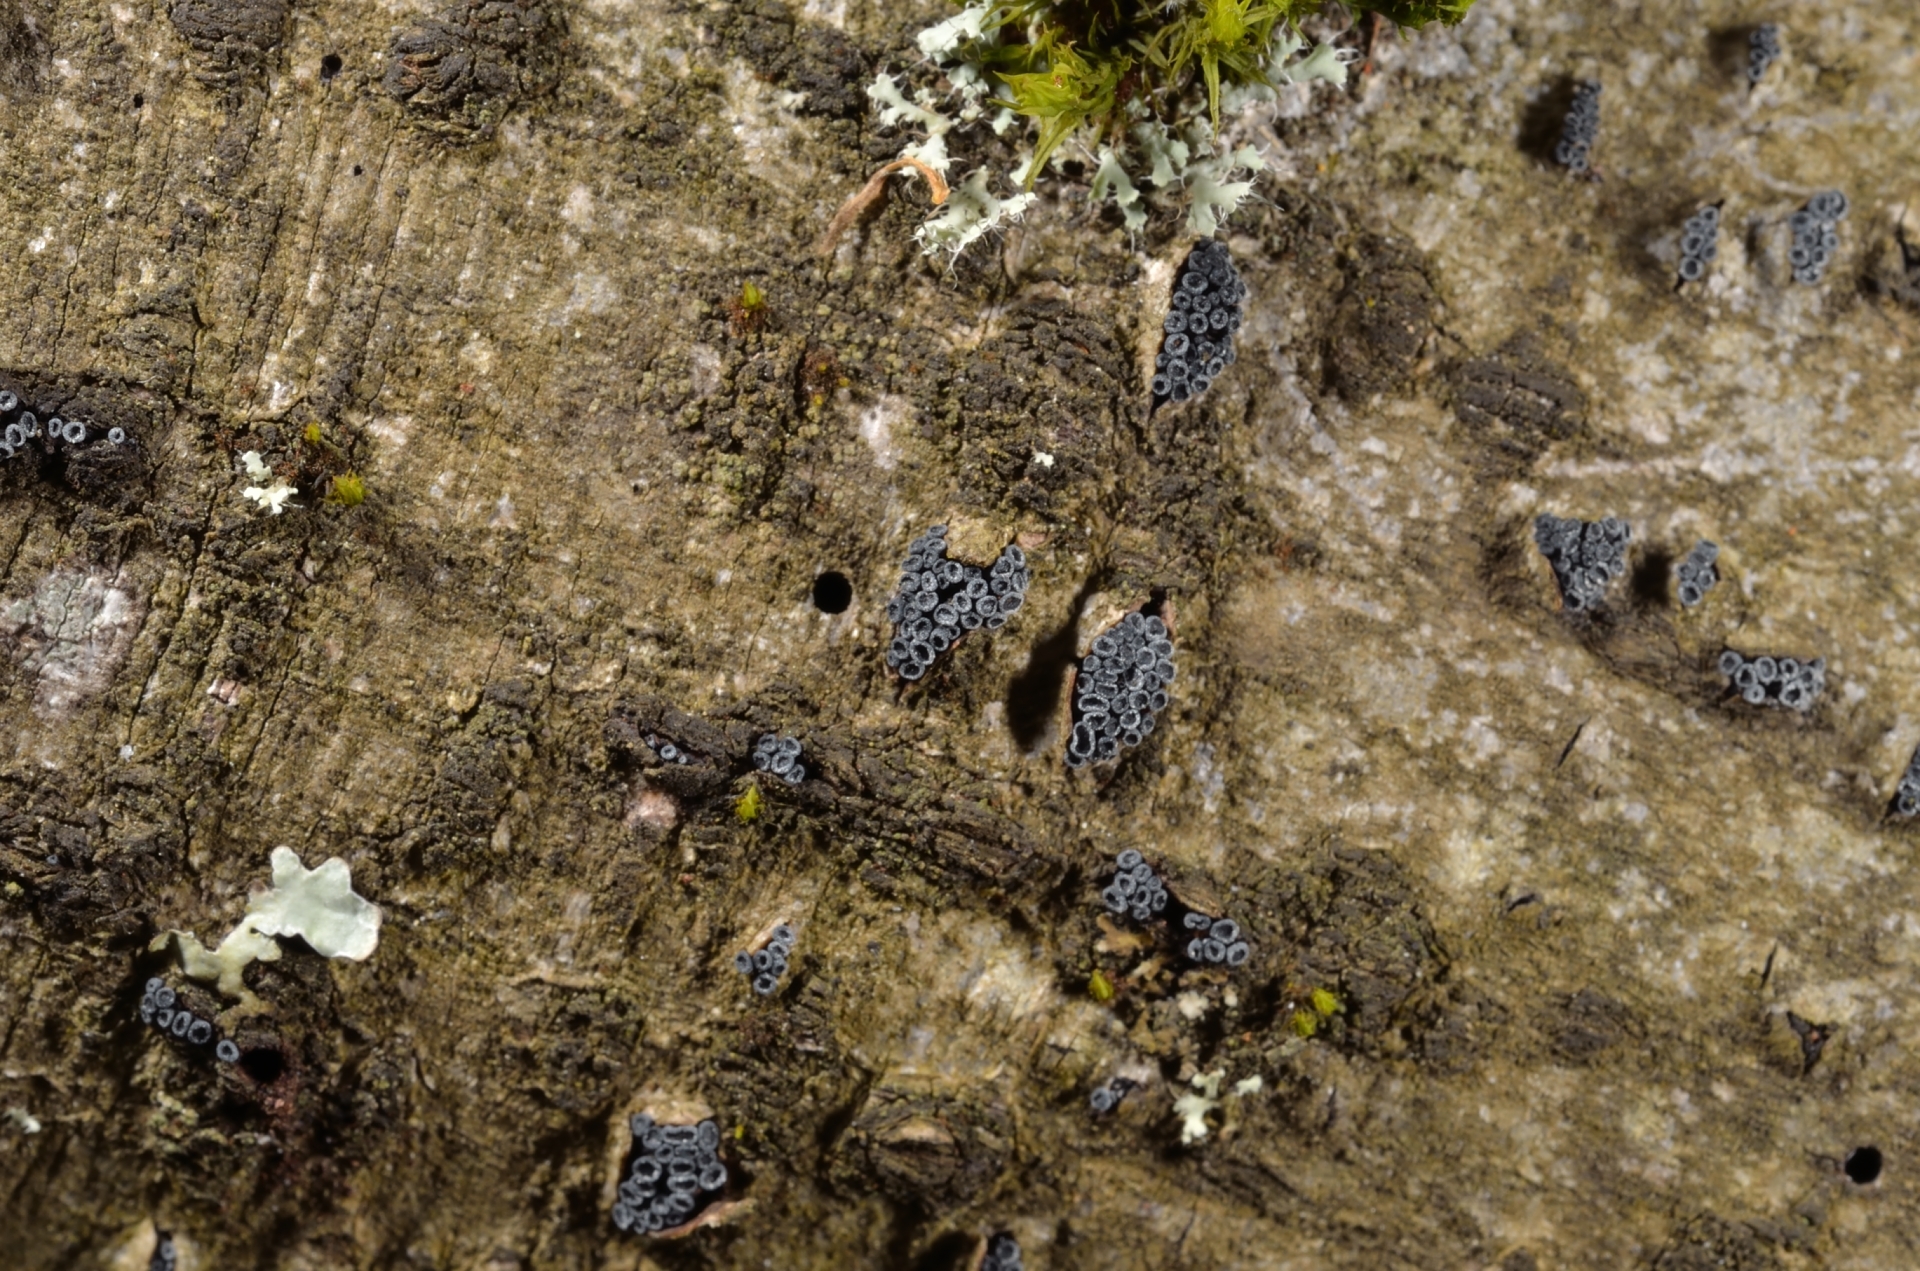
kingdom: Fungi
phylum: Ascomycota
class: Leotiomycetes
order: Leotiales
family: Tympanidaceae
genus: Tympanis
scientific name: Tympanis alnea
